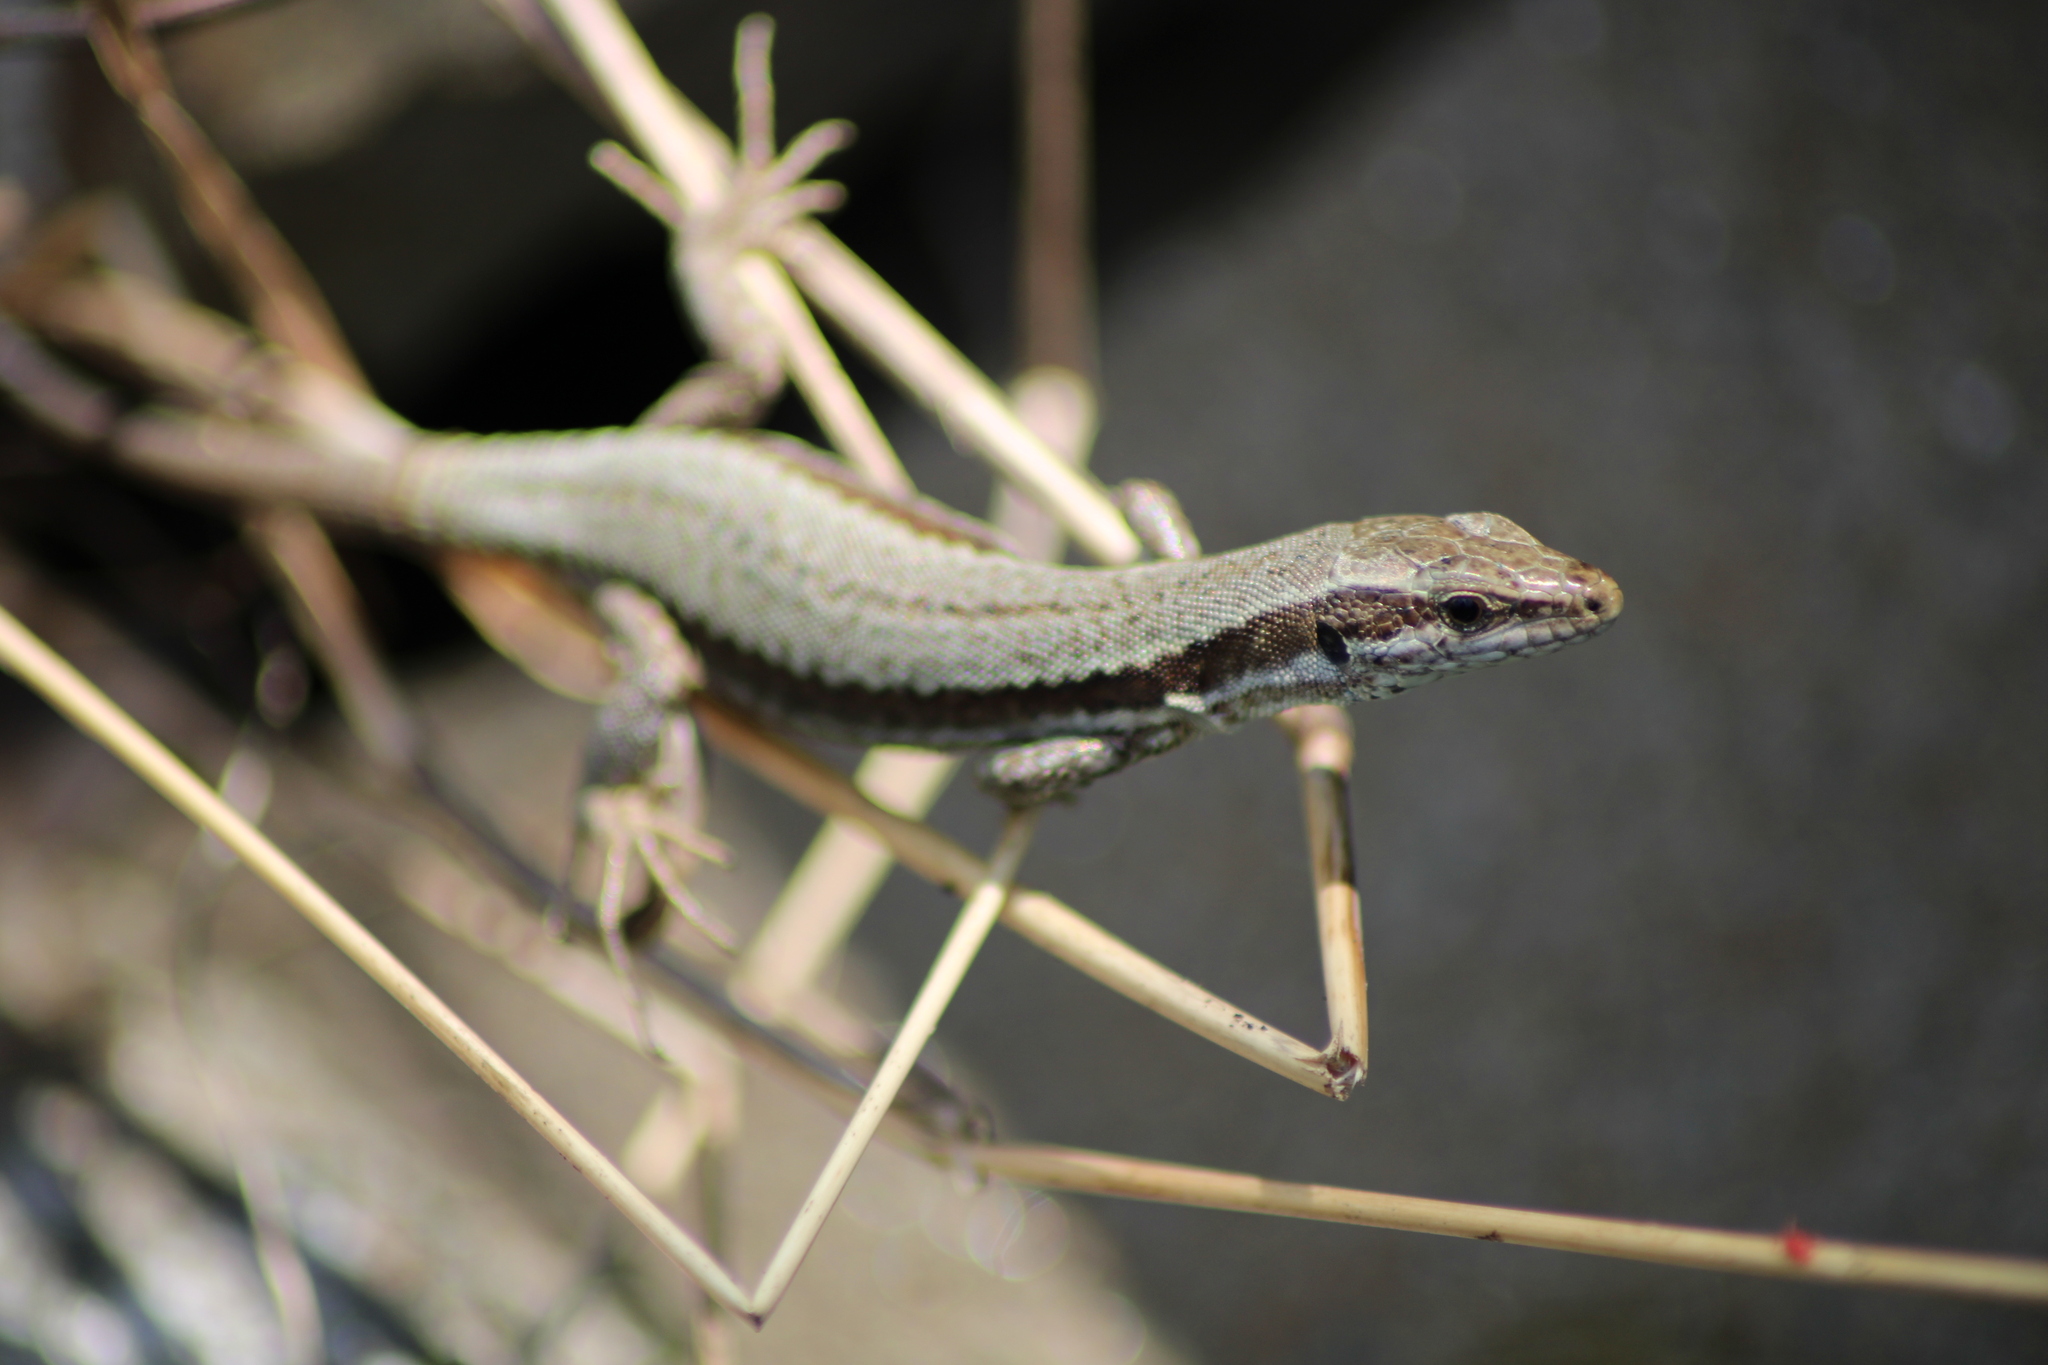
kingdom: Animalia
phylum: Chordata
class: Squamata
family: Lacertidae
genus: Podarcis
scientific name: Podarcis muralis
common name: Common wall lizard
